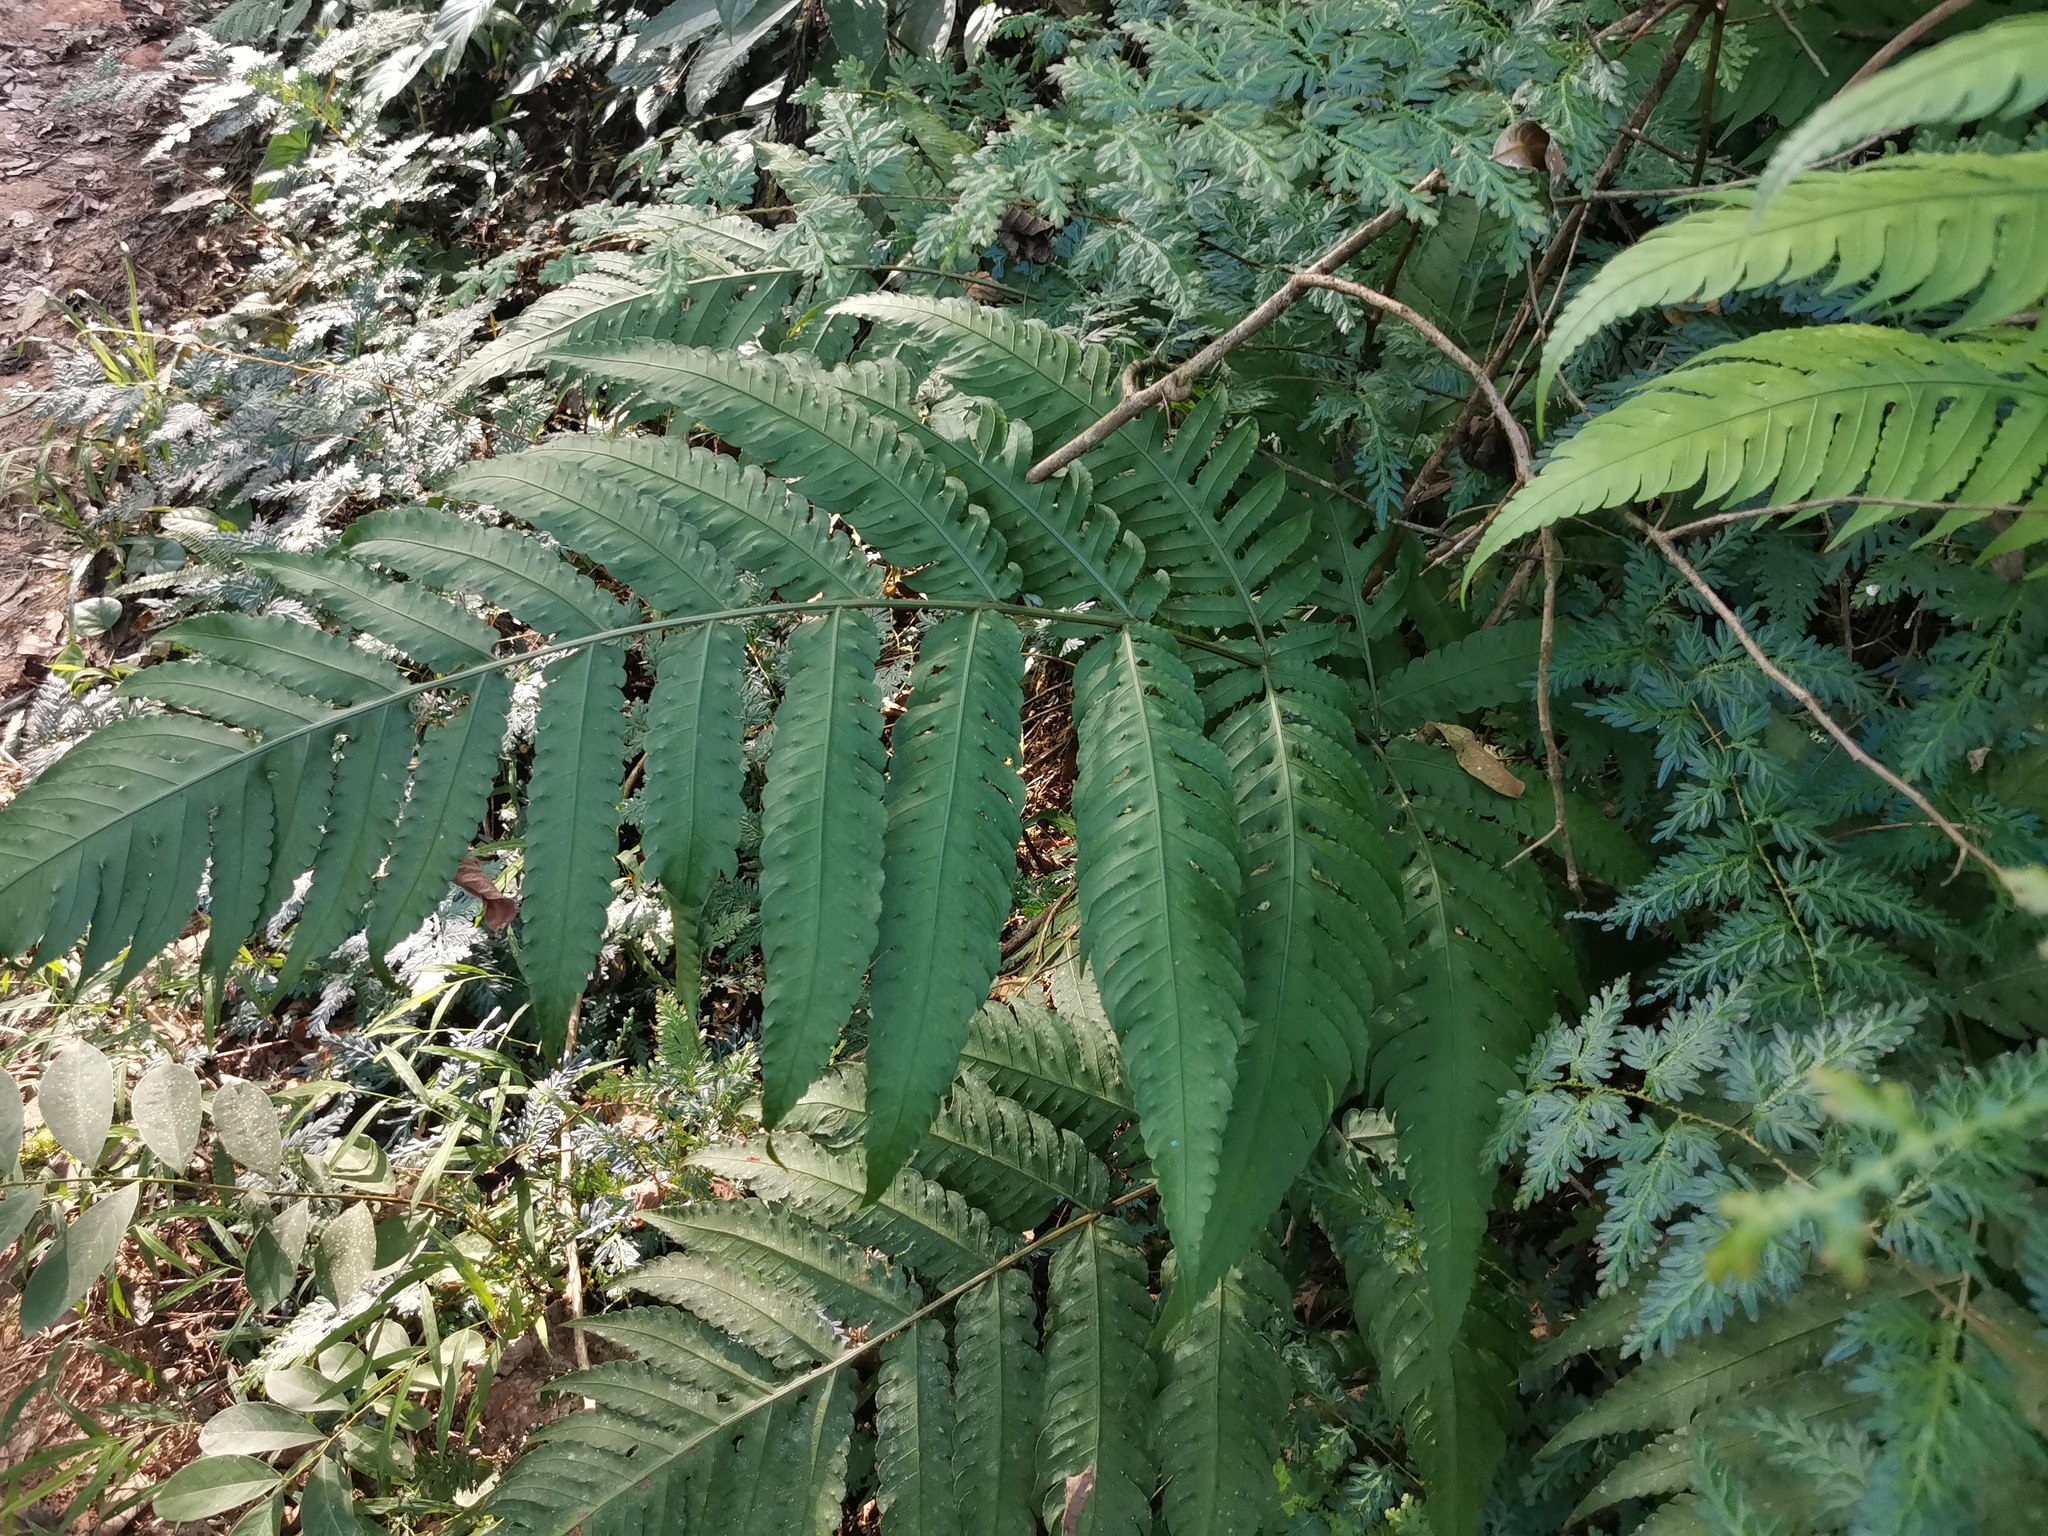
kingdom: Plantae
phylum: Tracheophyta
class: Polypodiopsida
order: Polypodiales
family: Dryopteridaceae
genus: Pleocnemia
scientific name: Pleocnemia irregularis
